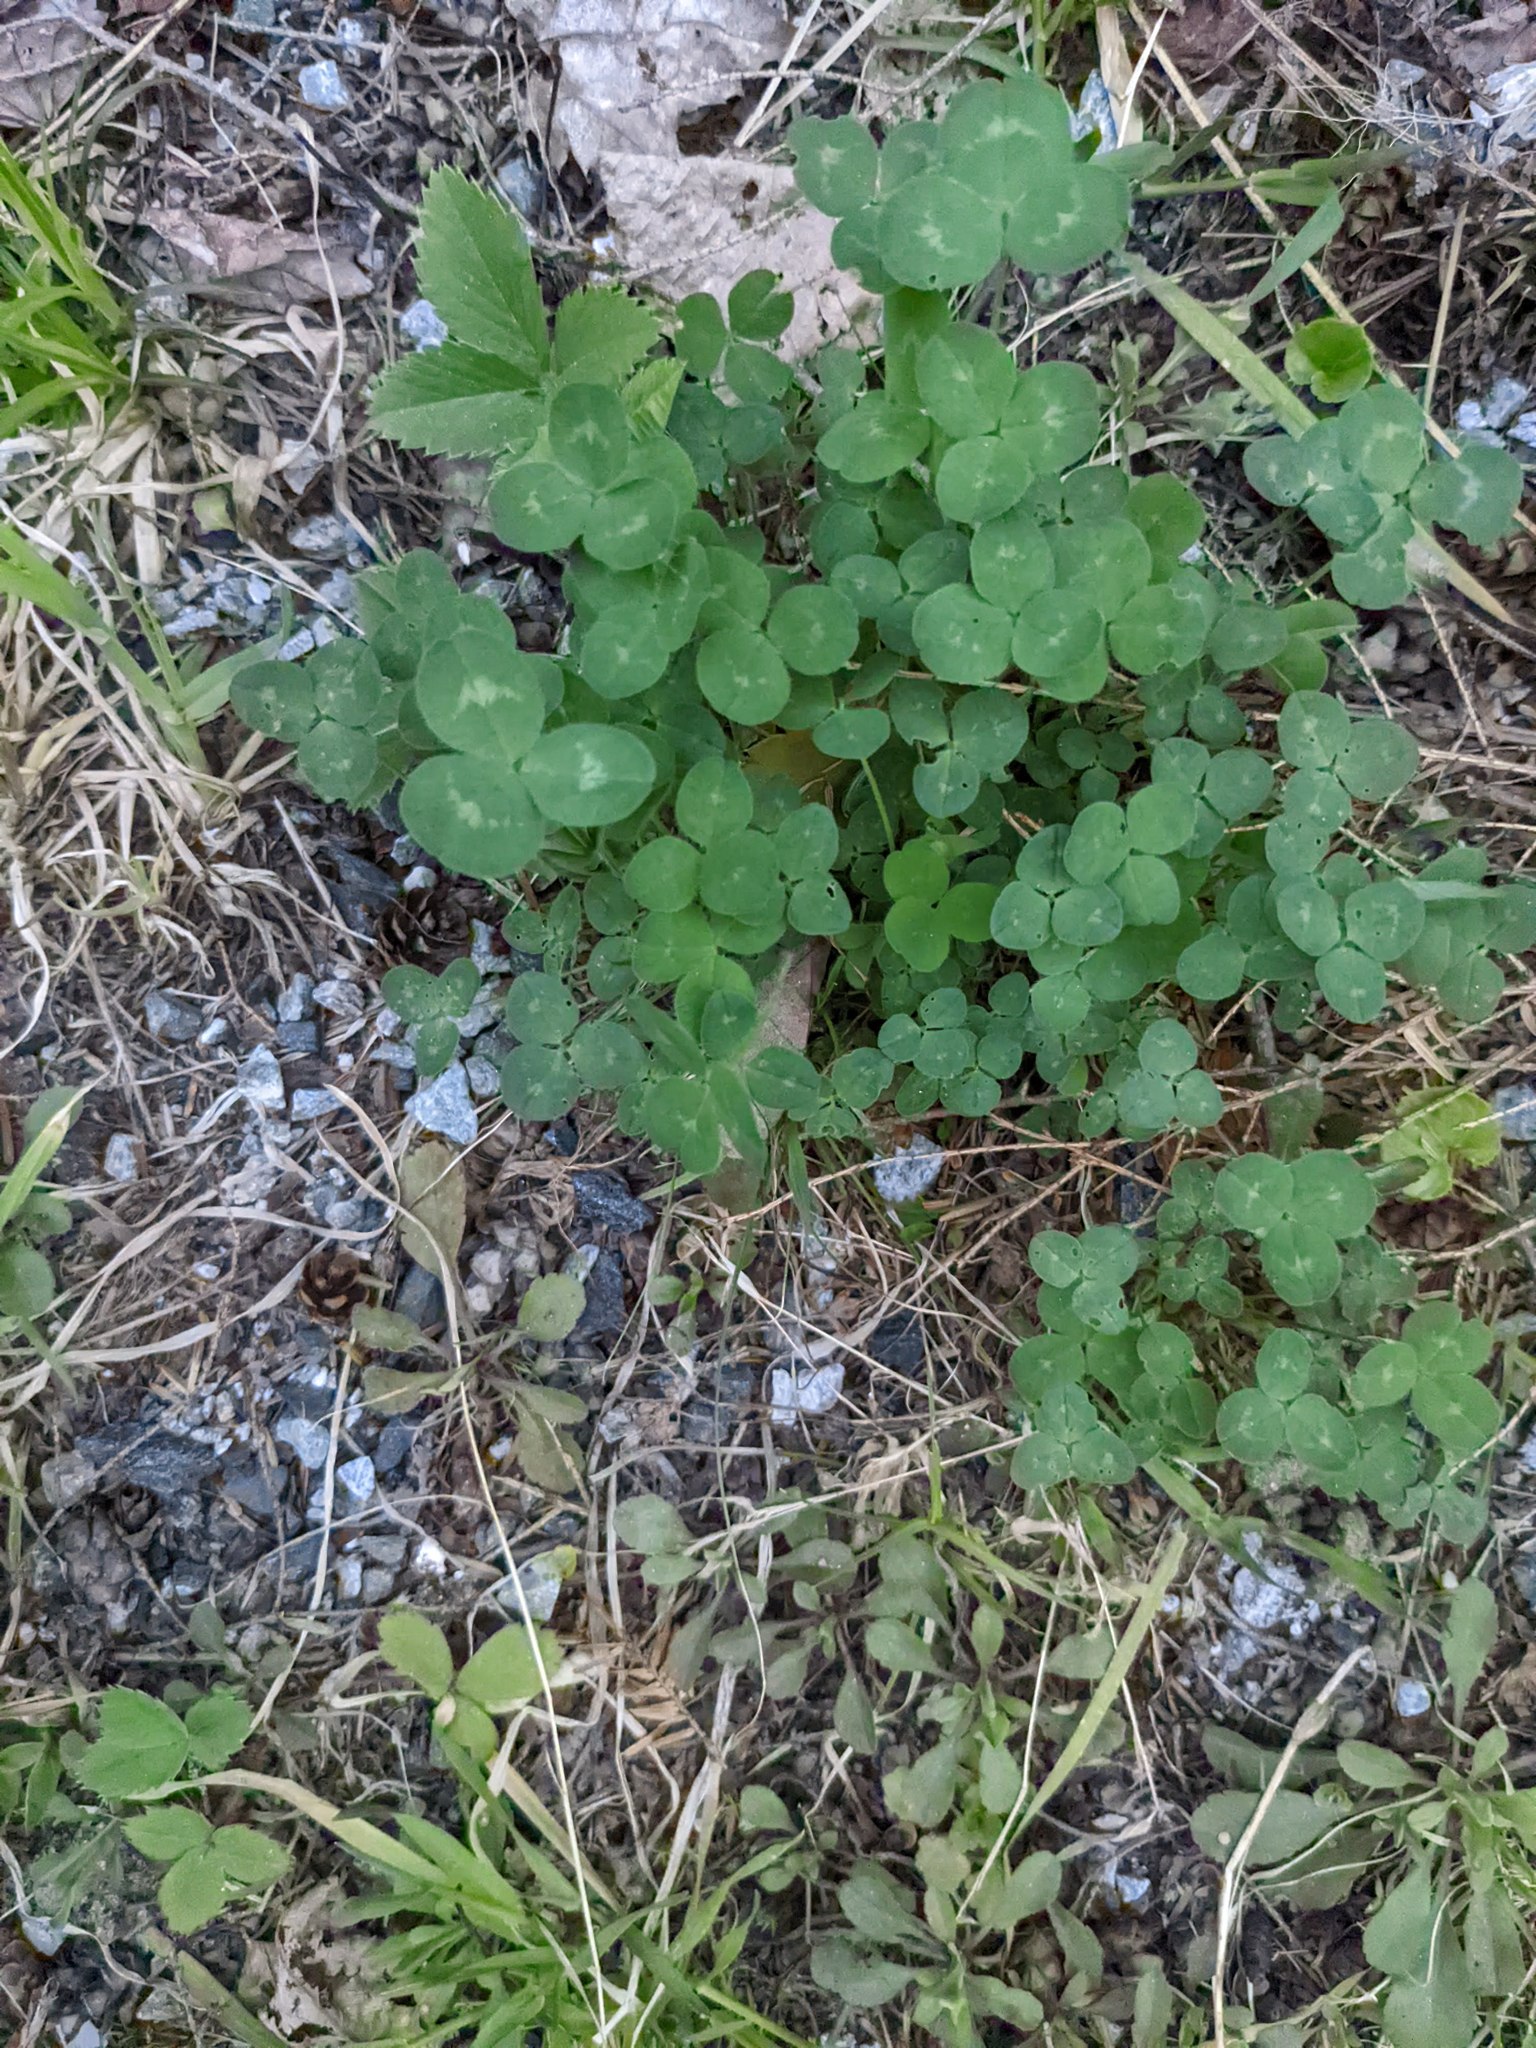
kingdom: Plantae
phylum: Tracheophyta
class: Magnoliopsida
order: Fabales
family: Fabaceae
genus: Trifolium
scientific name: Trifolium pratense
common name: Red clover
